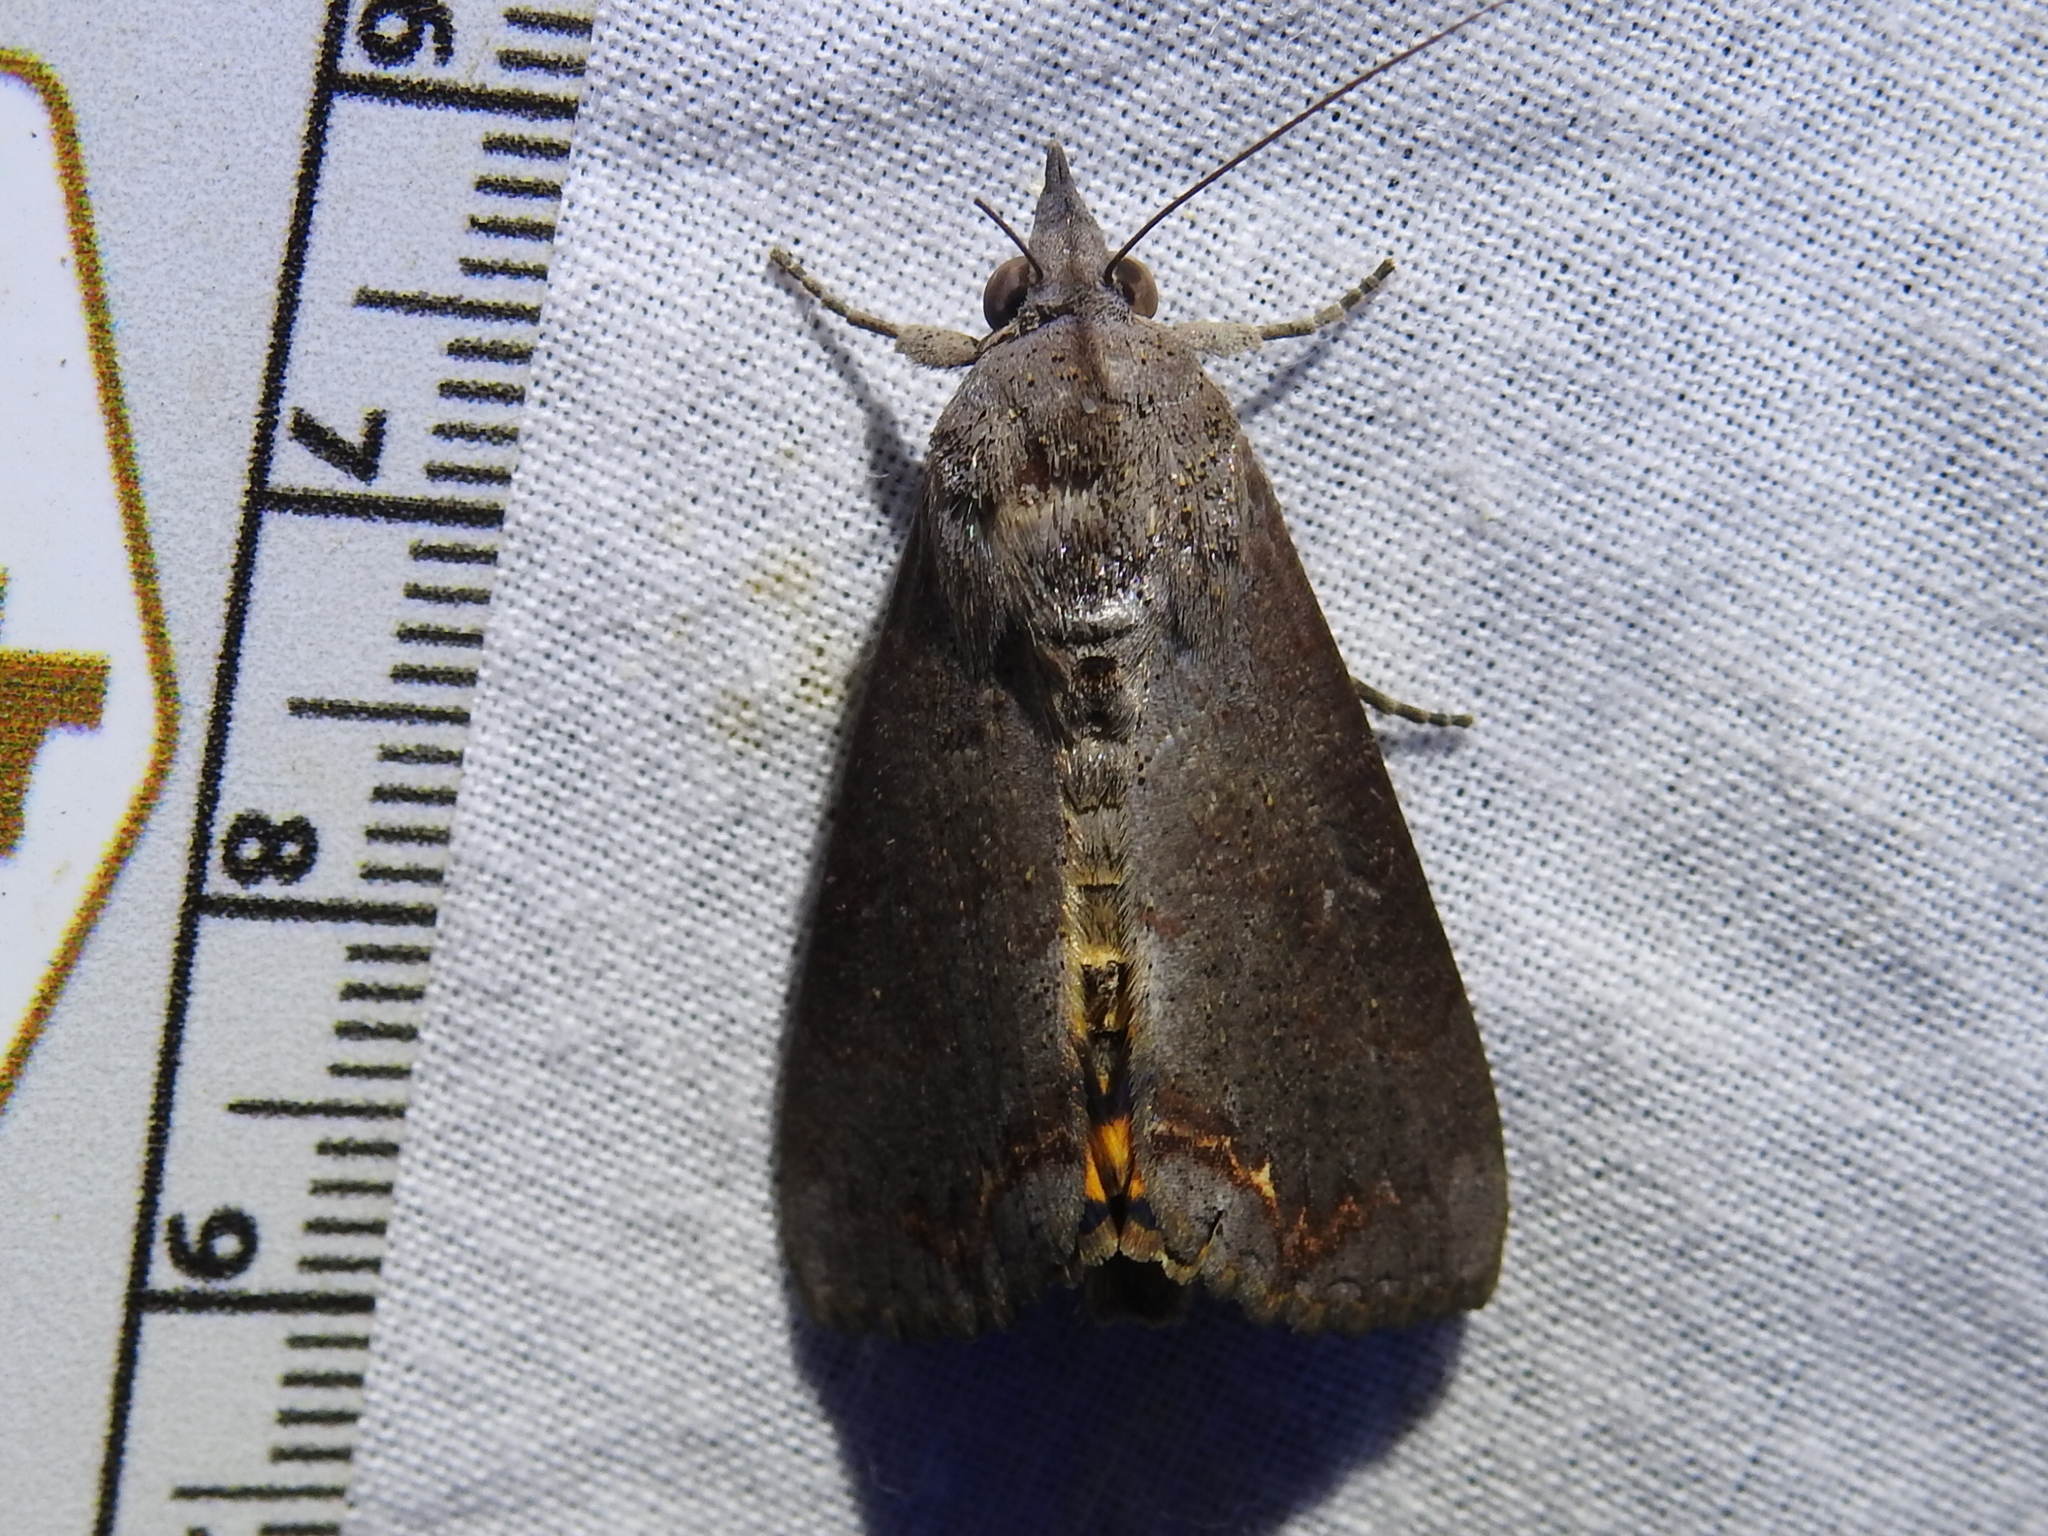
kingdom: Animalia
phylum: Arthropoda
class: Insecta
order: Lepidoptera
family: Erebidae
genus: Hypocala
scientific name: Hypocala andremona
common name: Hypocala moth
